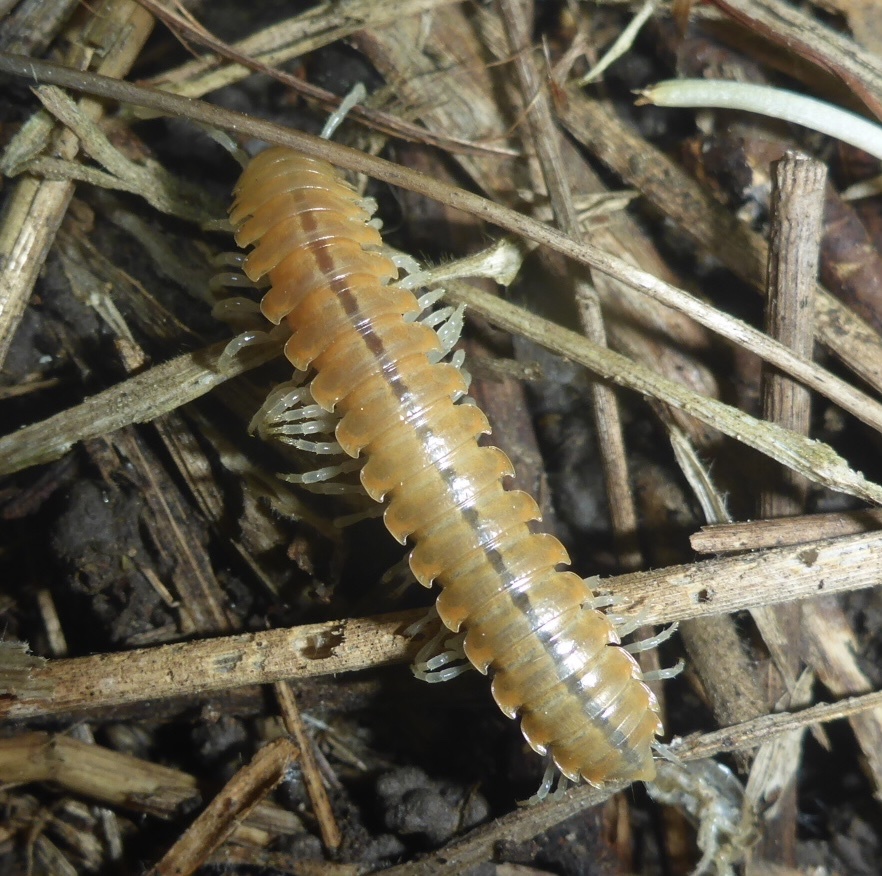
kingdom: Animalia
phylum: Arthropoda
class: Diplopoda
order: Polydesmida
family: Xystodesmidae
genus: Xystocheir
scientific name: Xystocheir dissecta
